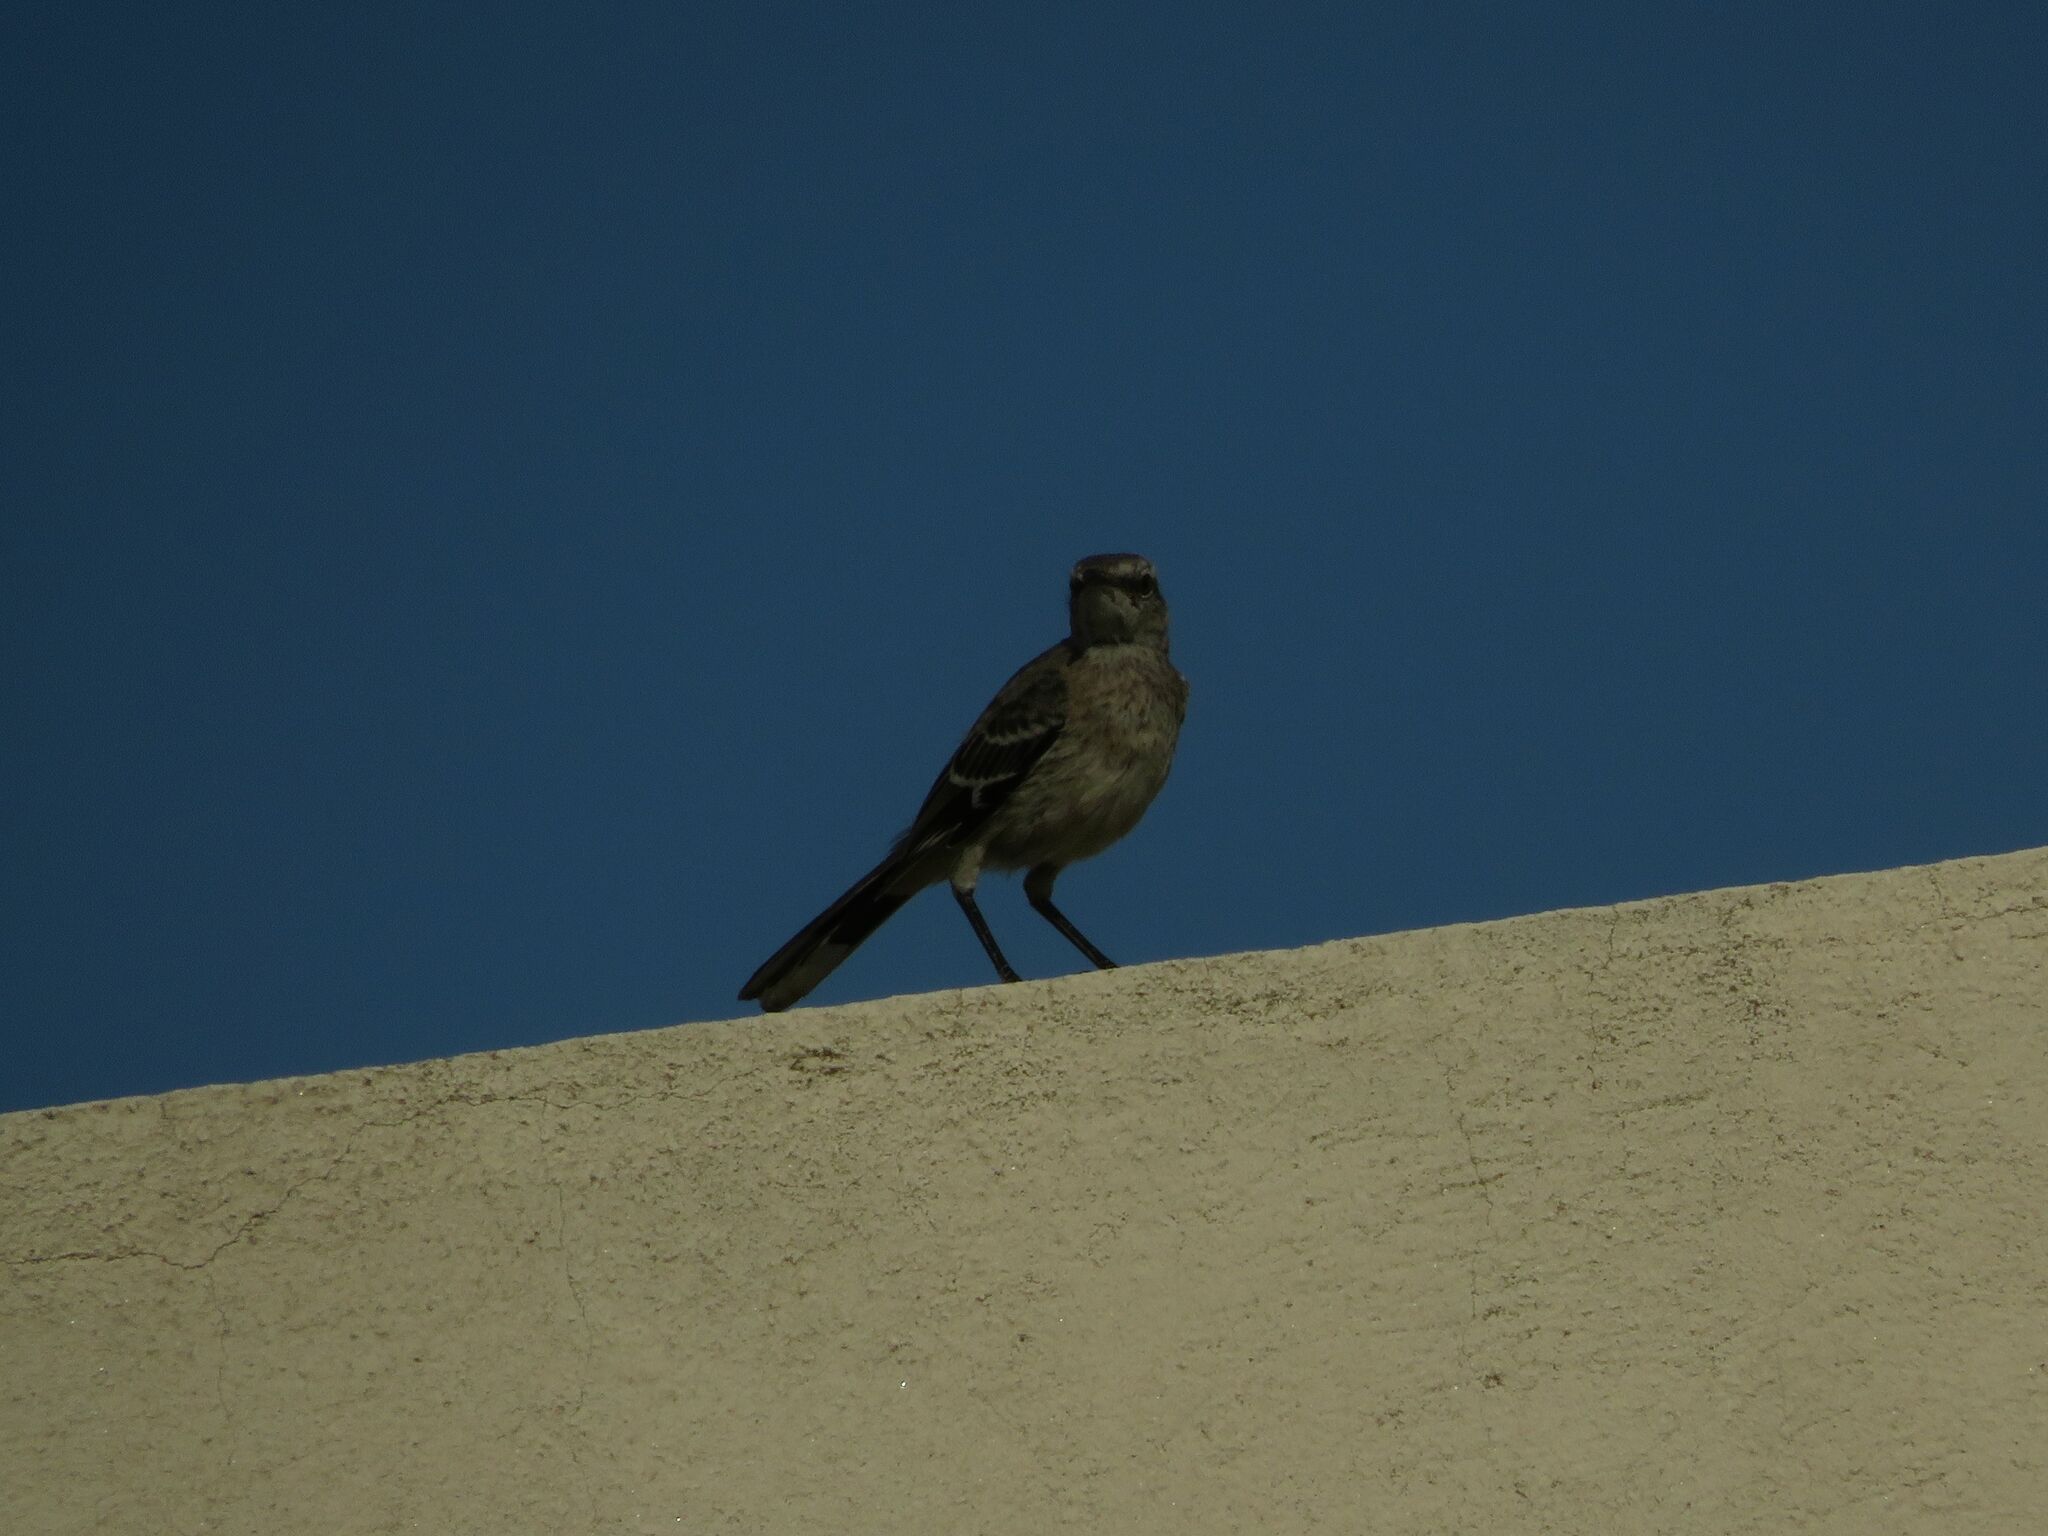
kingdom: Animalia
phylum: Chordata
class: Aves
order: Passeriformes
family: Mimidae
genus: Mimus
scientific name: Mimus patagonicus
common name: Patagonian mockingbird
